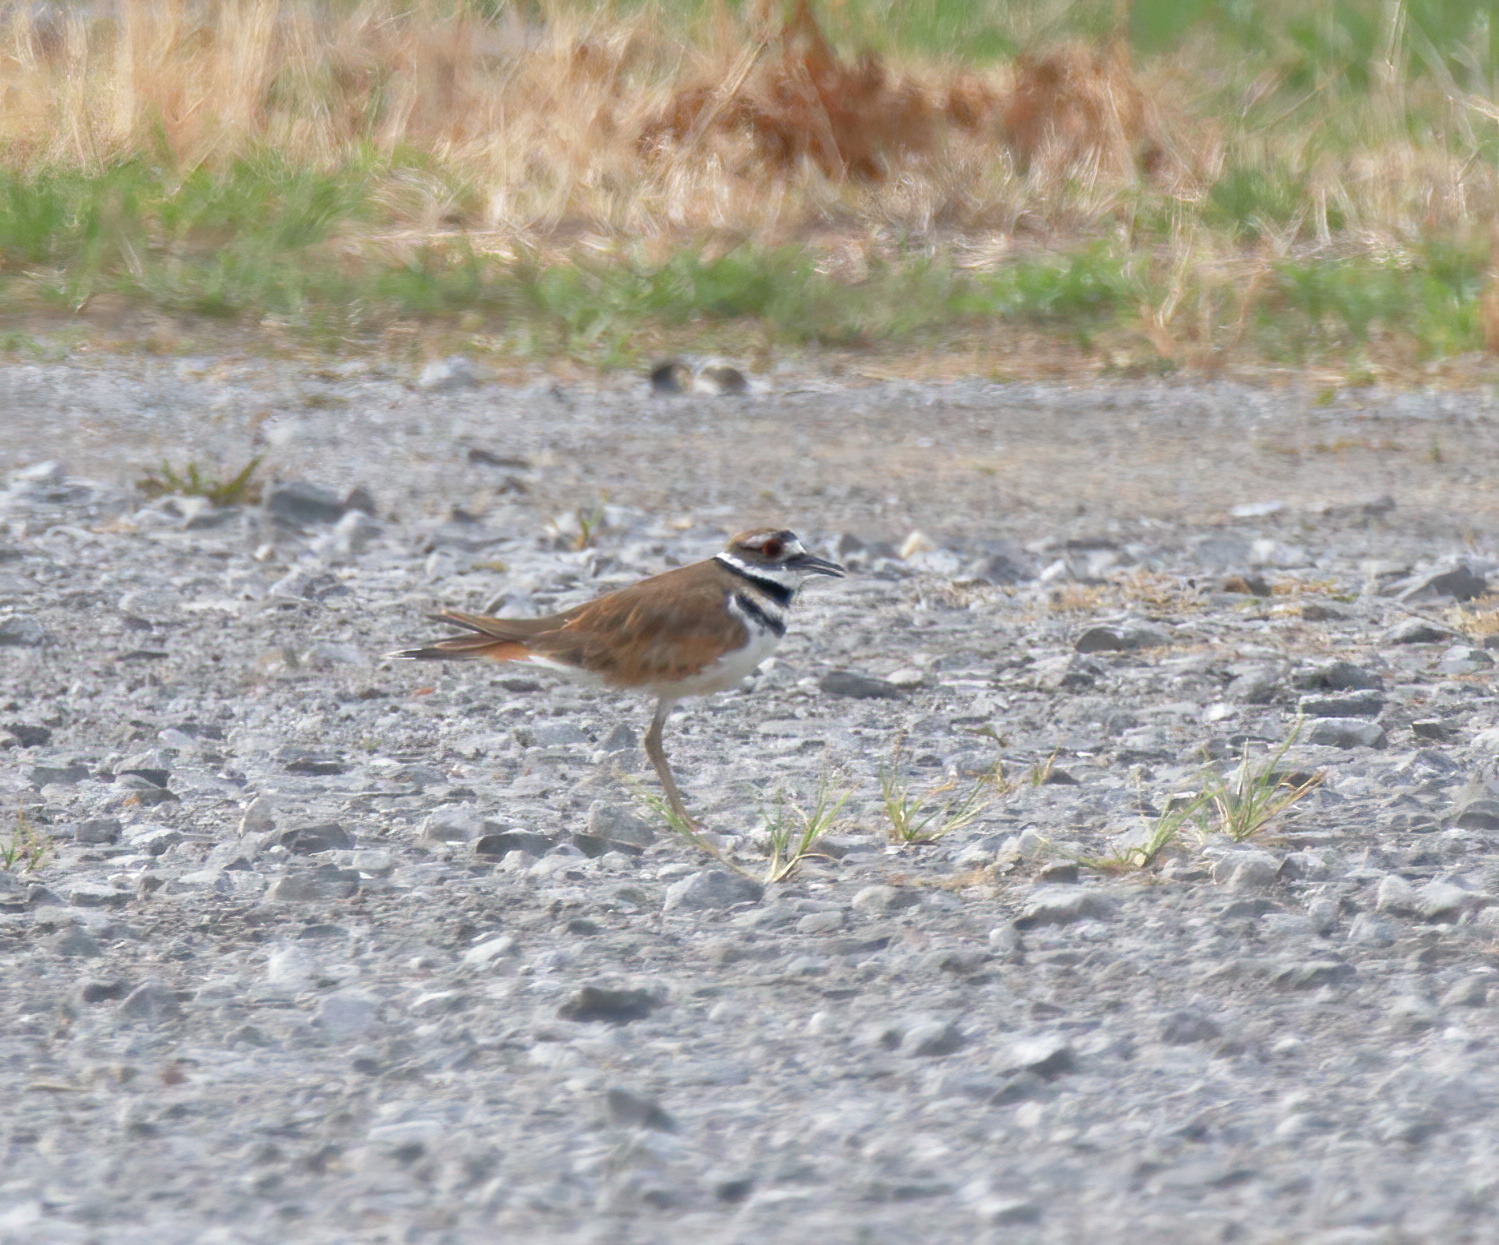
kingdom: Animalia
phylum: Chordata
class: Aves
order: Charadriiformes
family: Charadriidae
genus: Charadrius
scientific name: Charadrius vociferus
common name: Killdeer
